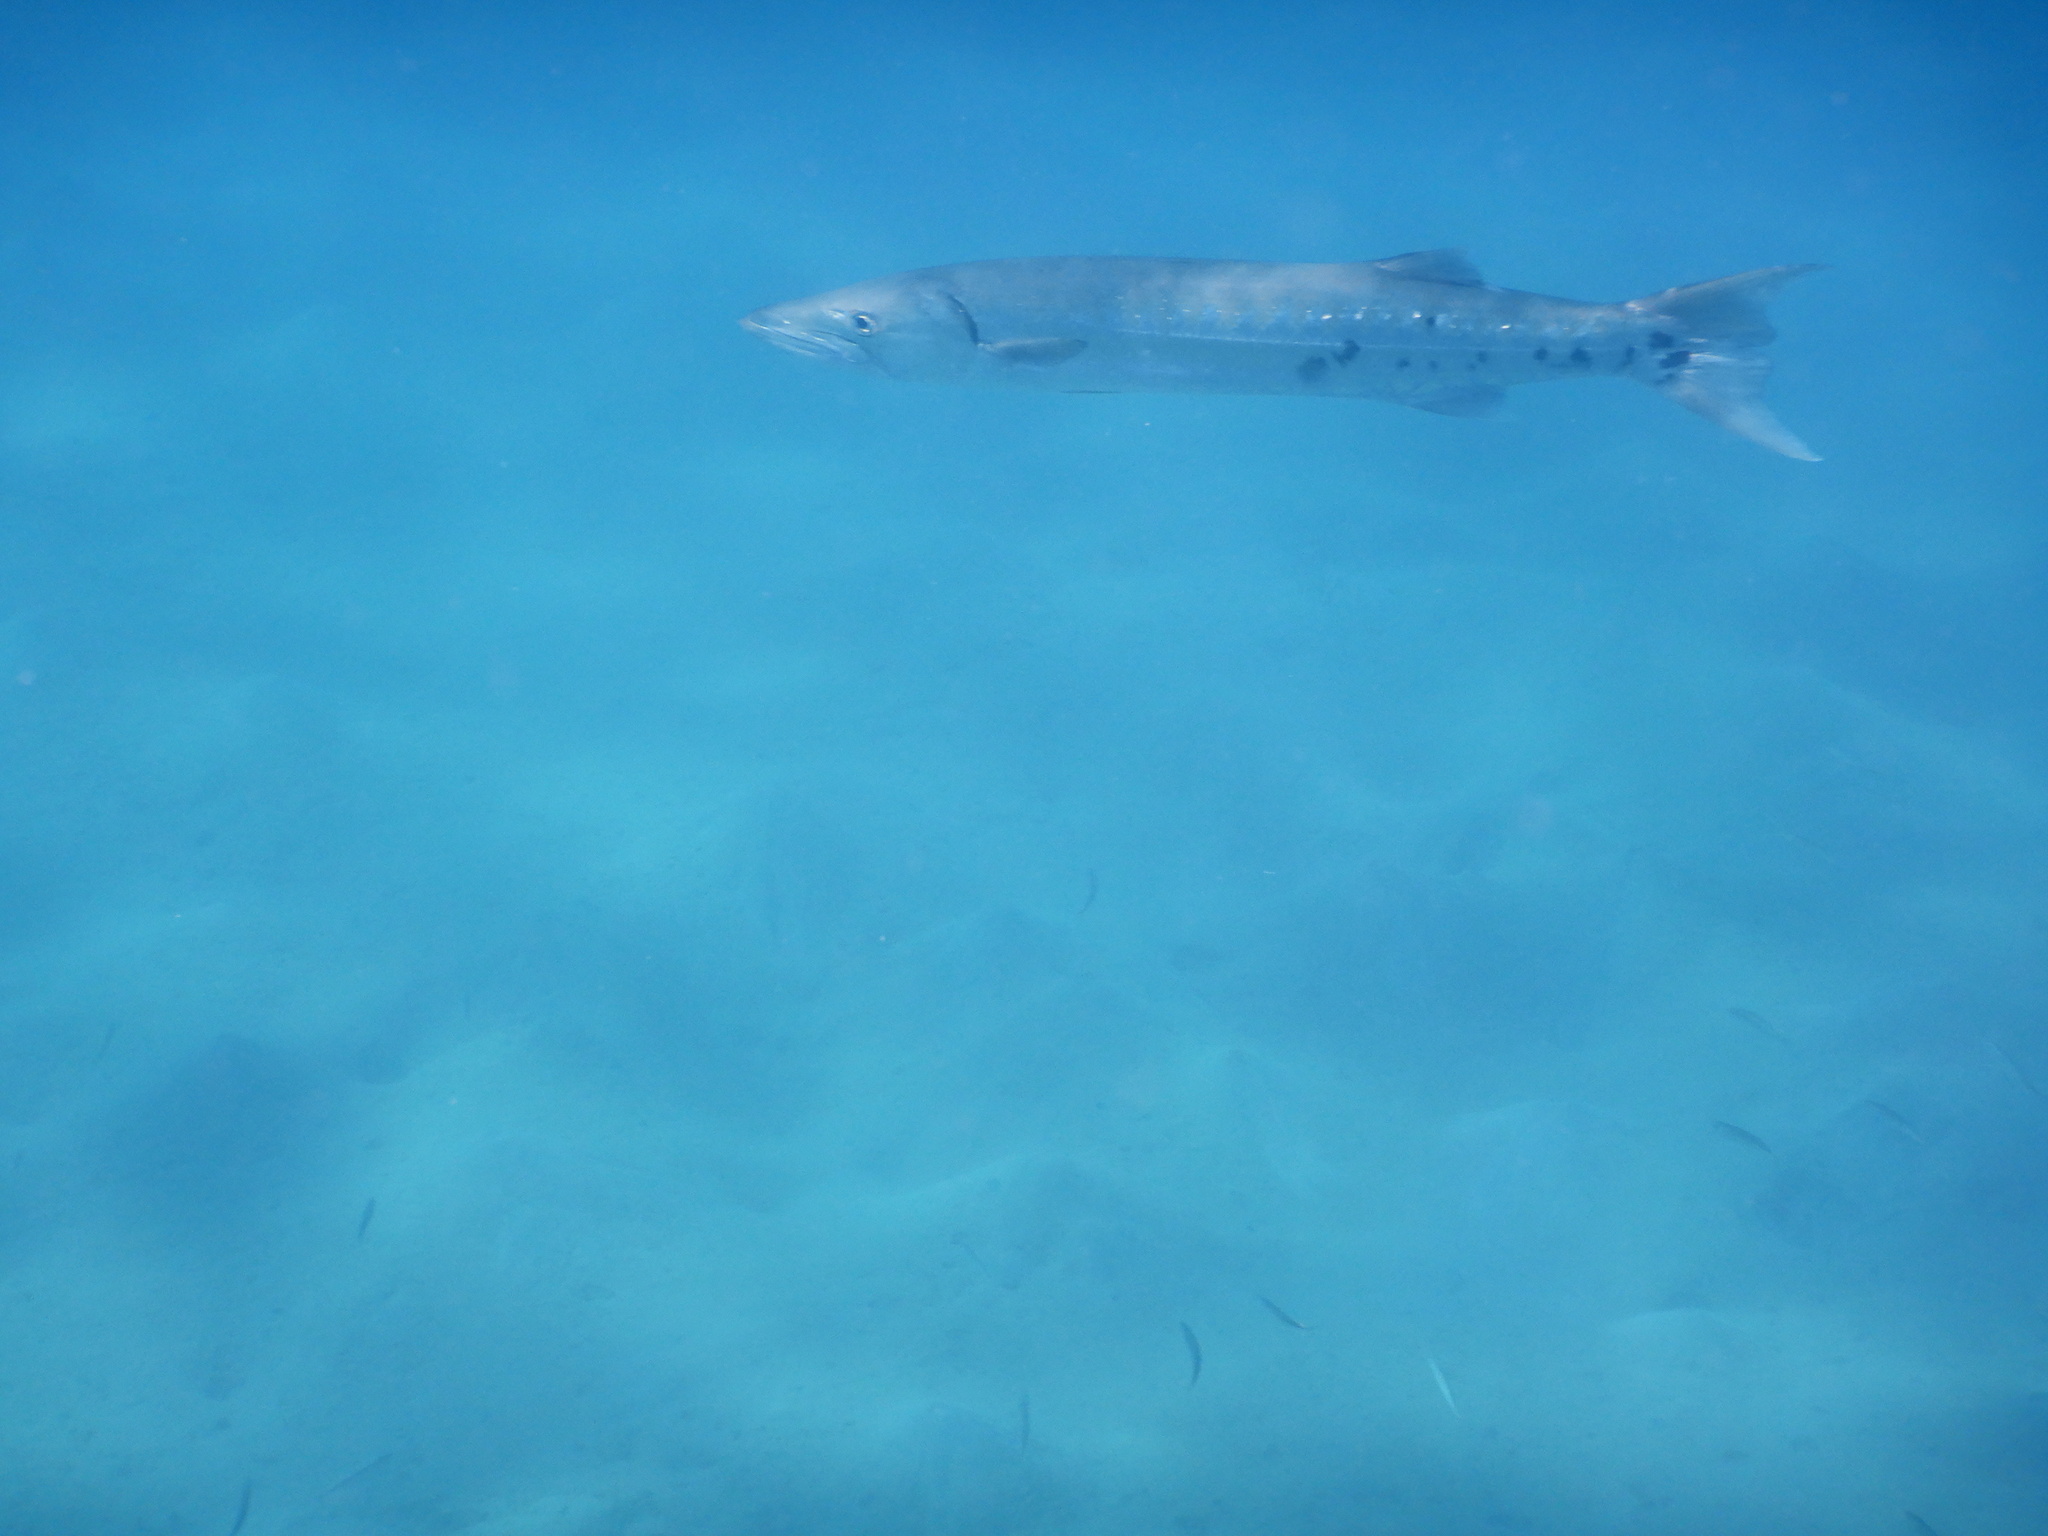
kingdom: Animalia
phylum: Chordata
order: Perciformes
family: Sphyraenidae
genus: Sphyraena
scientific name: Sphyraena barracuda
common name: Great barracuda
